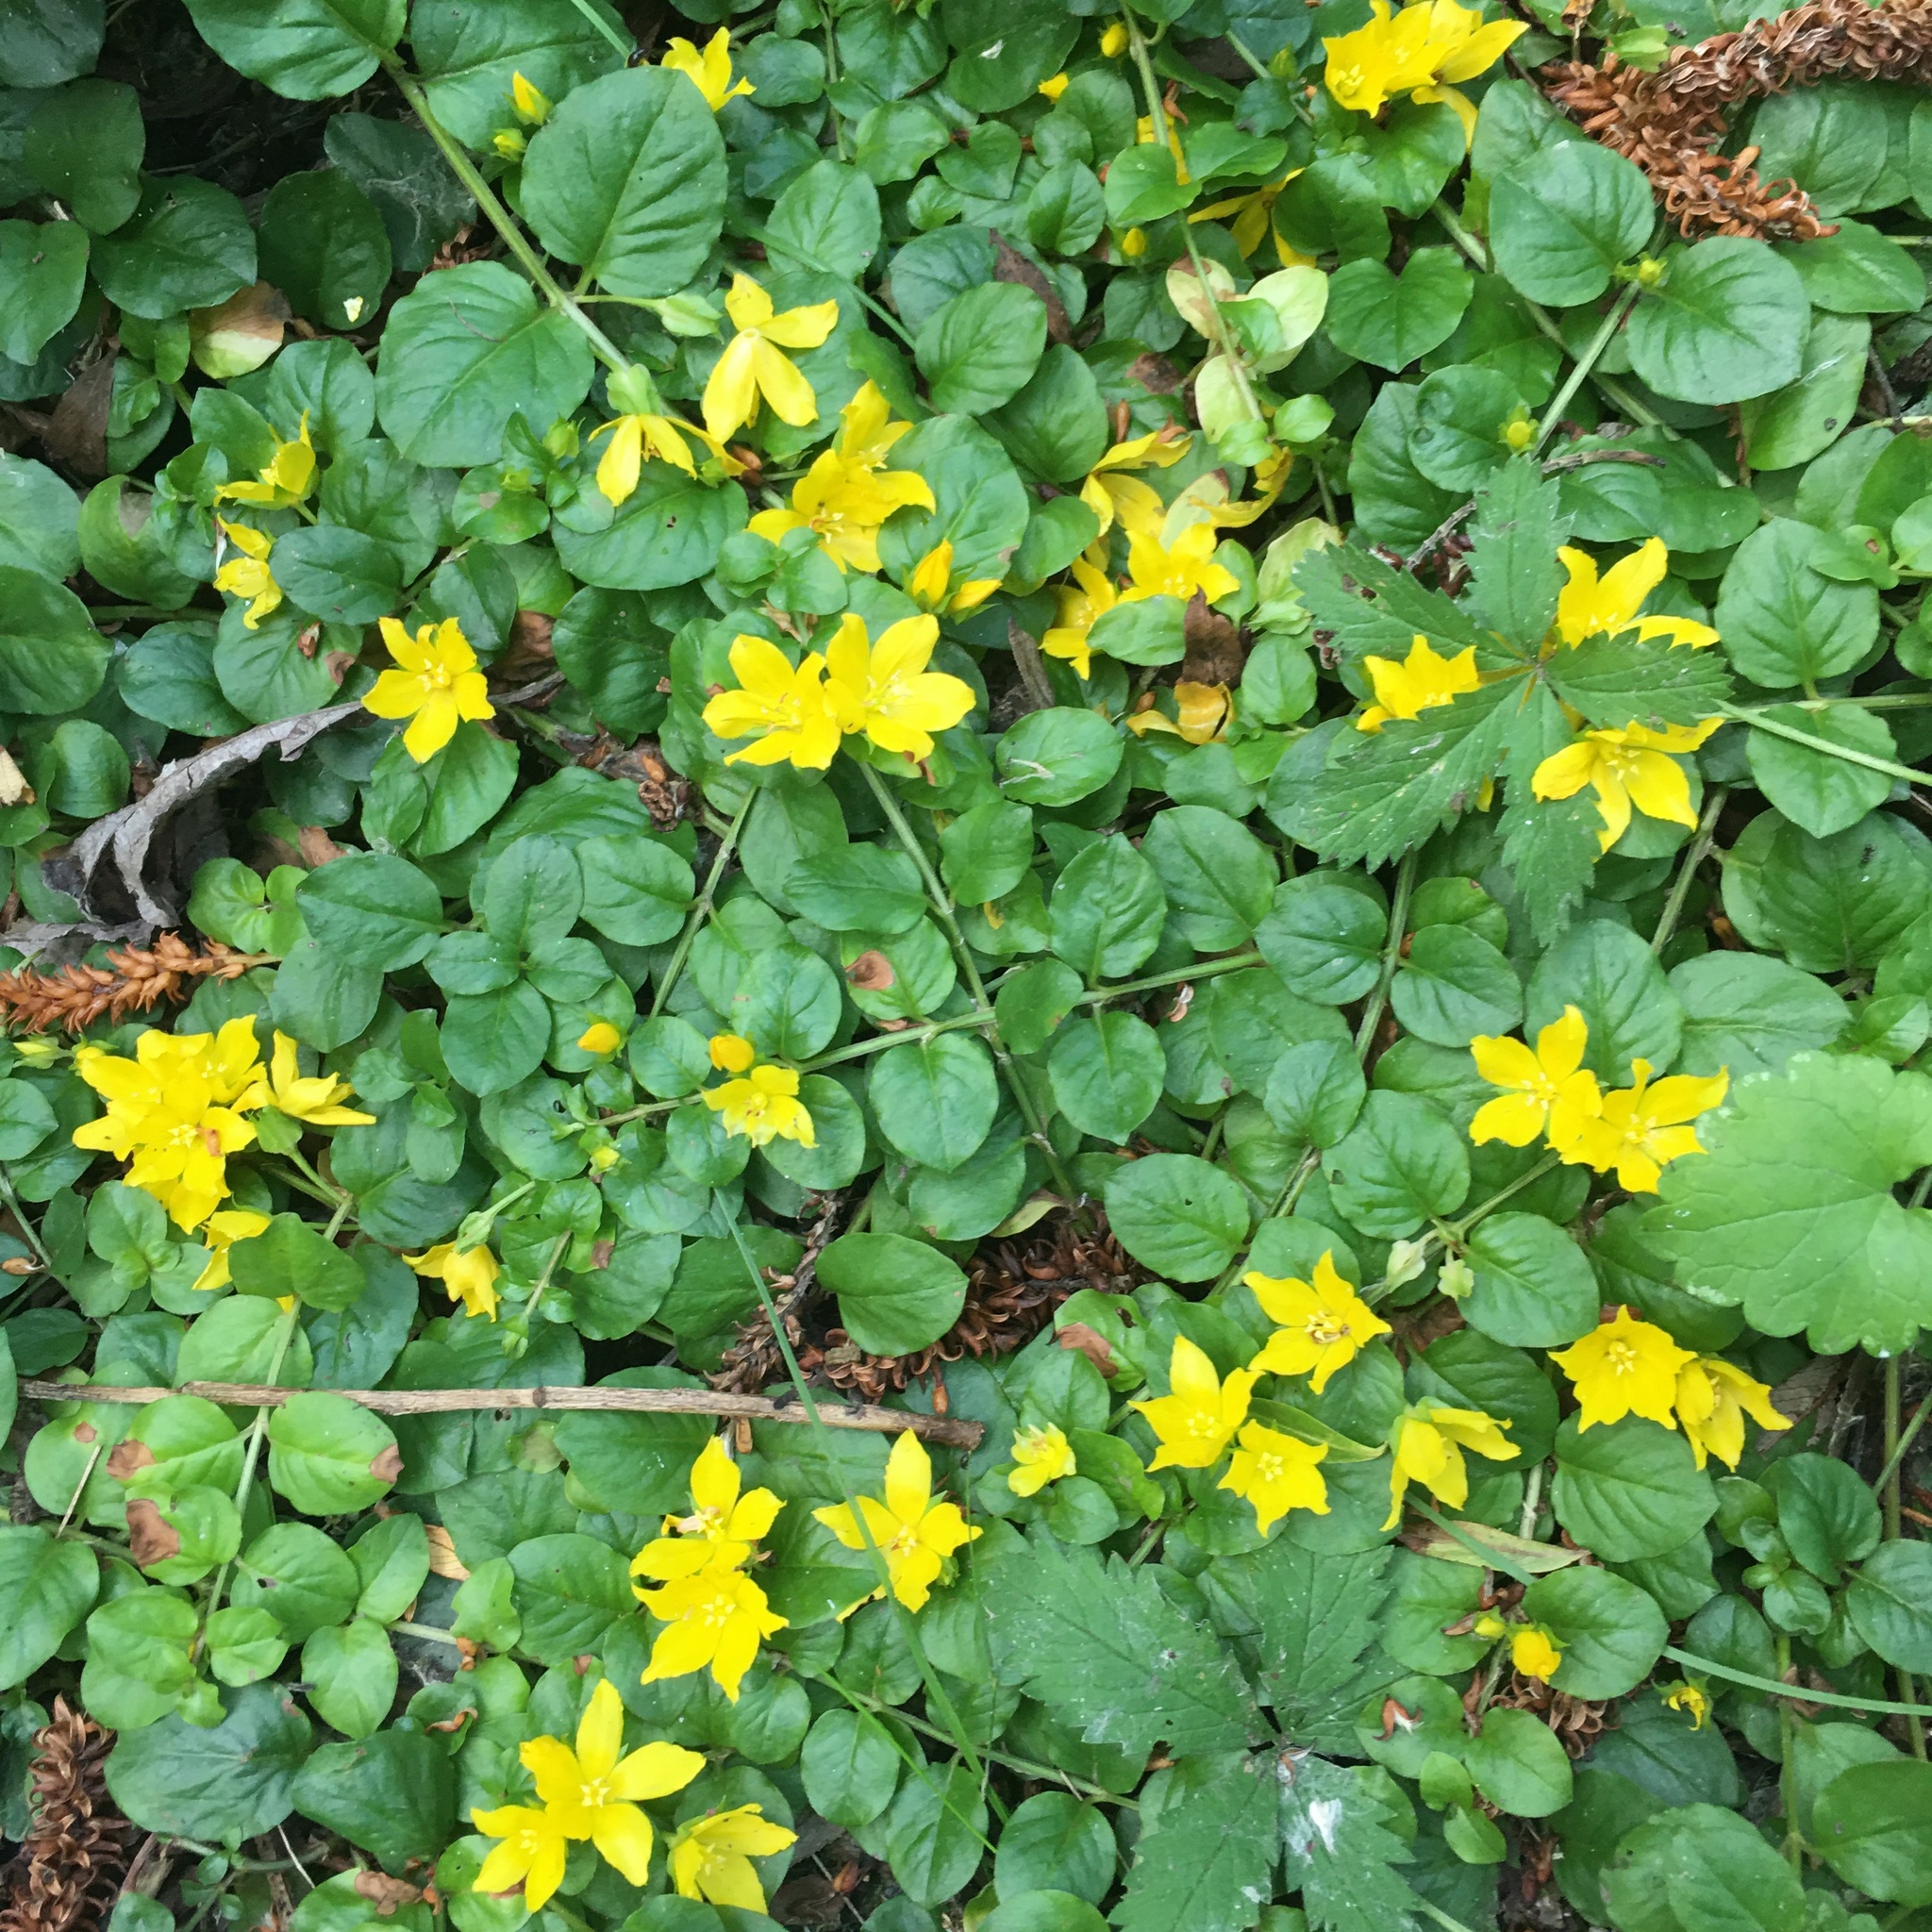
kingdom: Plantae
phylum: Tracheophyta
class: Magnoliopsida
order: Ericales
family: Primulaceae
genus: Lysimachia
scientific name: Lysimachia nummularia
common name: Moneywort
